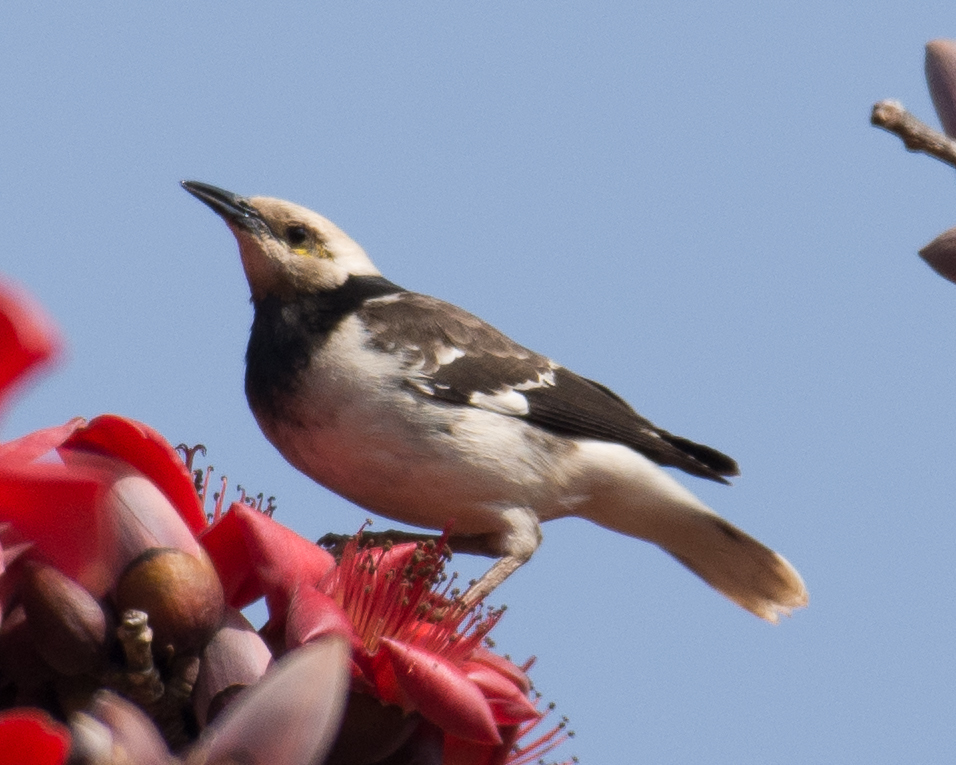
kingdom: Animalia
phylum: Chordata
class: Aves
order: Passeriformes
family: Sturnidae
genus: Gracupica
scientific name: Gracupica nigricollis
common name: Black-collared starling
